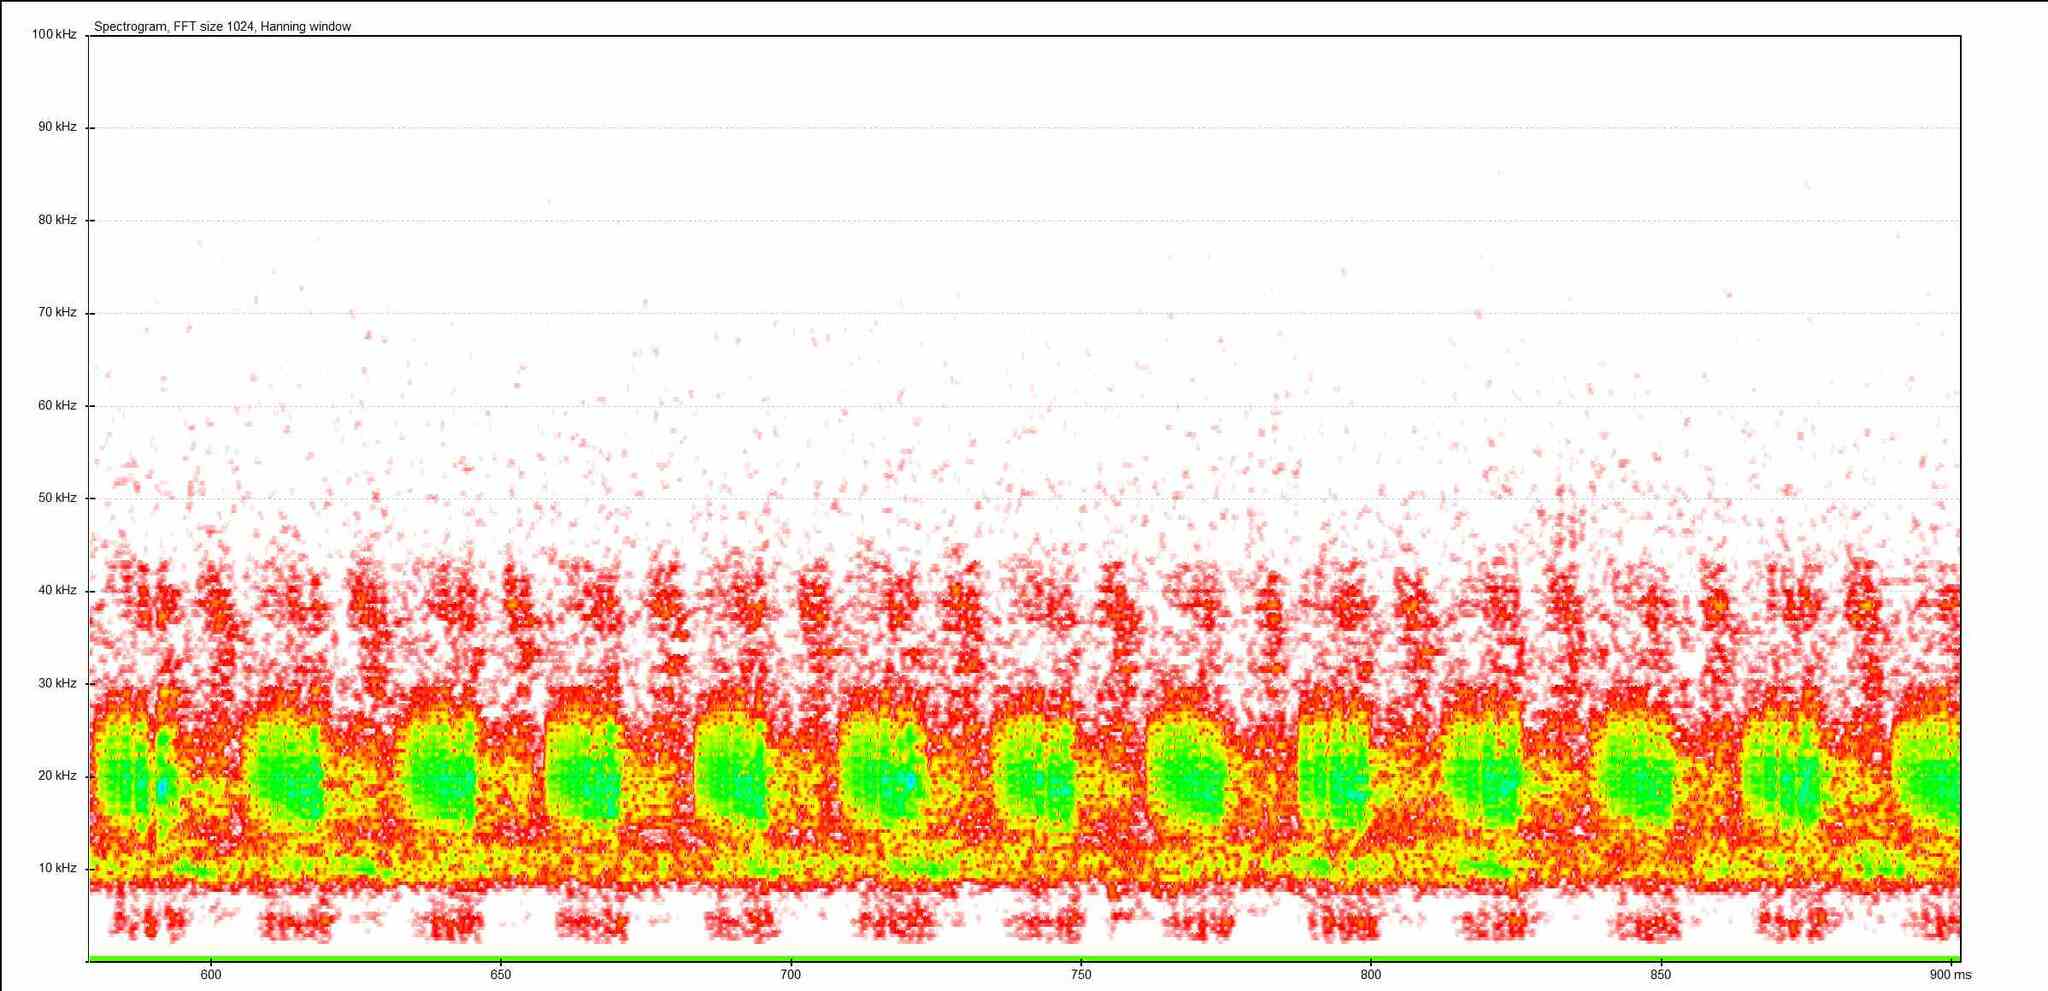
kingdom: Animalia
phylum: Arthropoda
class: Insecta
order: Orthoptera
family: Tettigoniidae
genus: Roeseliana
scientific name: Roeseliana roeselii
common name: Roesel's bush cricket
